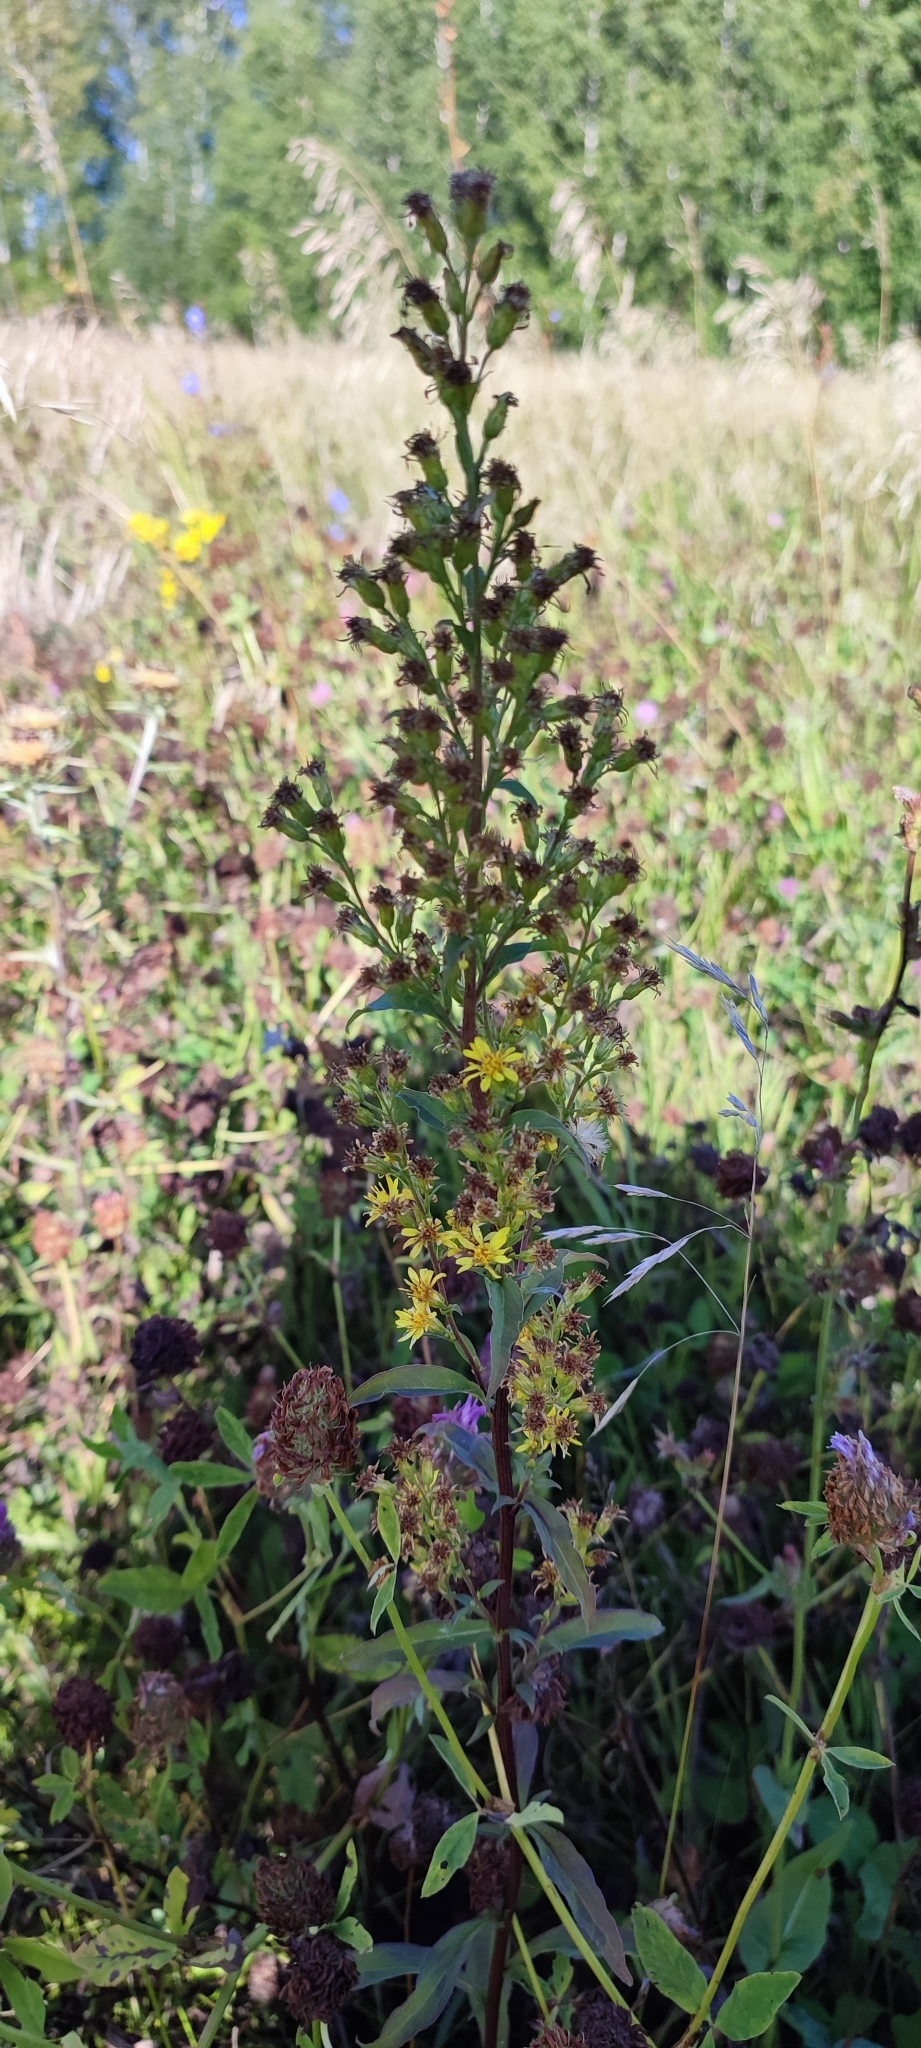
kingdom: Plantae
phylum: Tracheophyta
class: Magnoliopsida
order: Asterales
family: Asteraceae
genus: Solidago
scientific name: Solidago virgaurea
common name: Goldenrod
